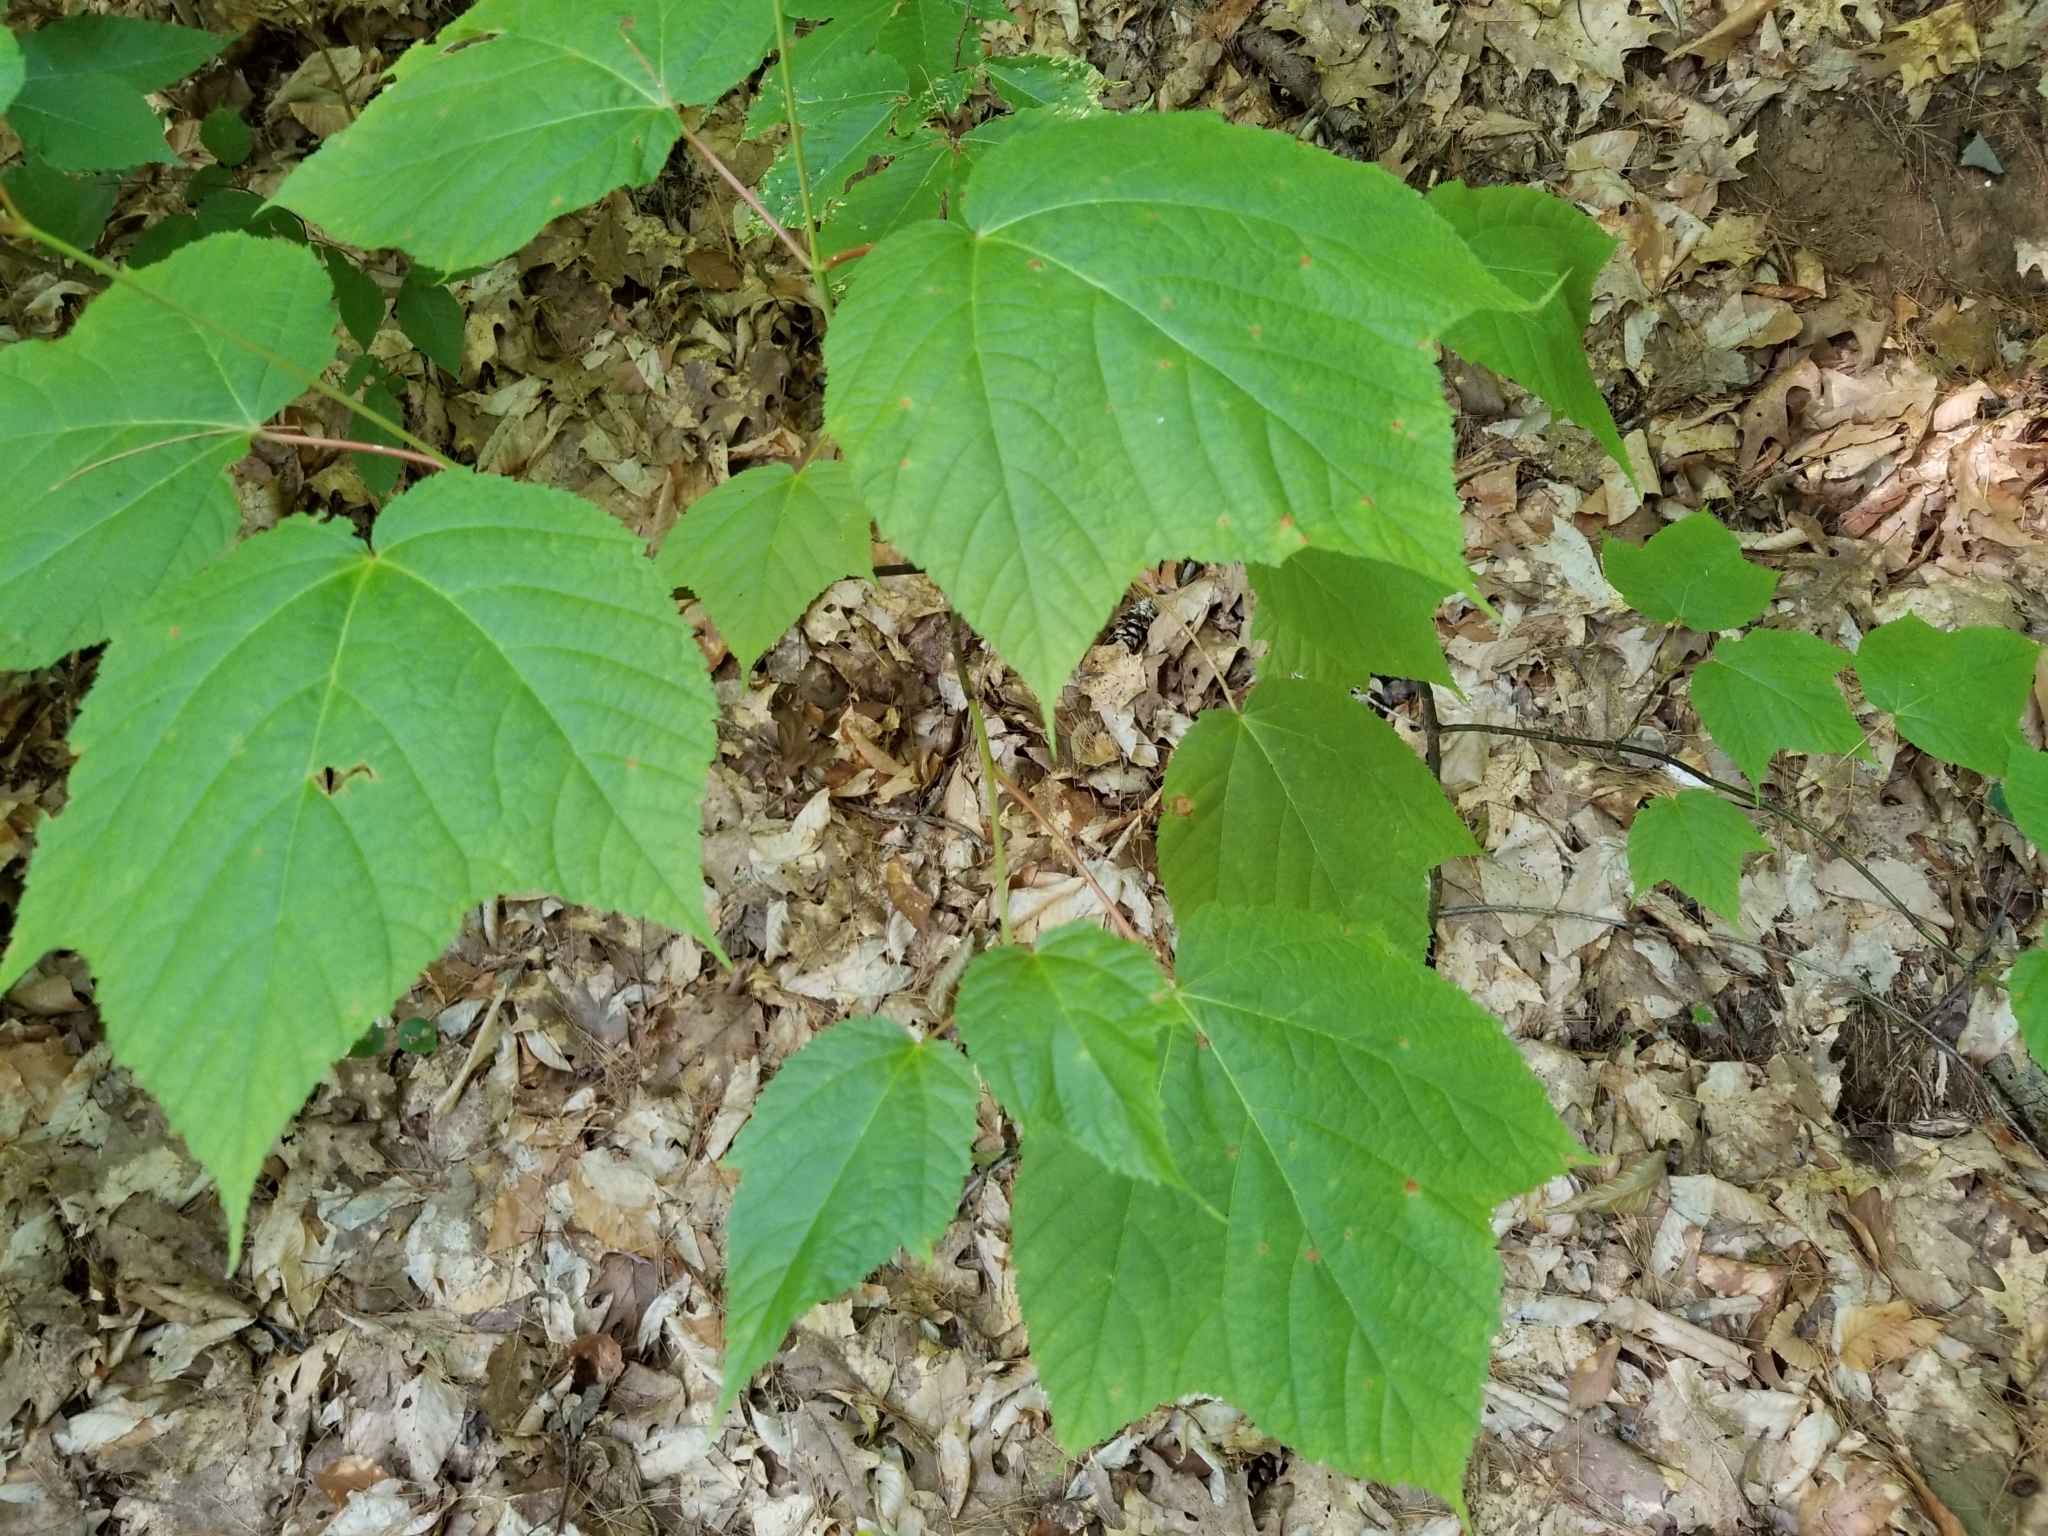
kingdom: Plantae
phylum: Tracheophyta
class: Magnoliopsida
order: Sapindales
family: Sapindaceae
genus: Acer
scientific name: Acer pensylvanicum
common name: Moosewood
